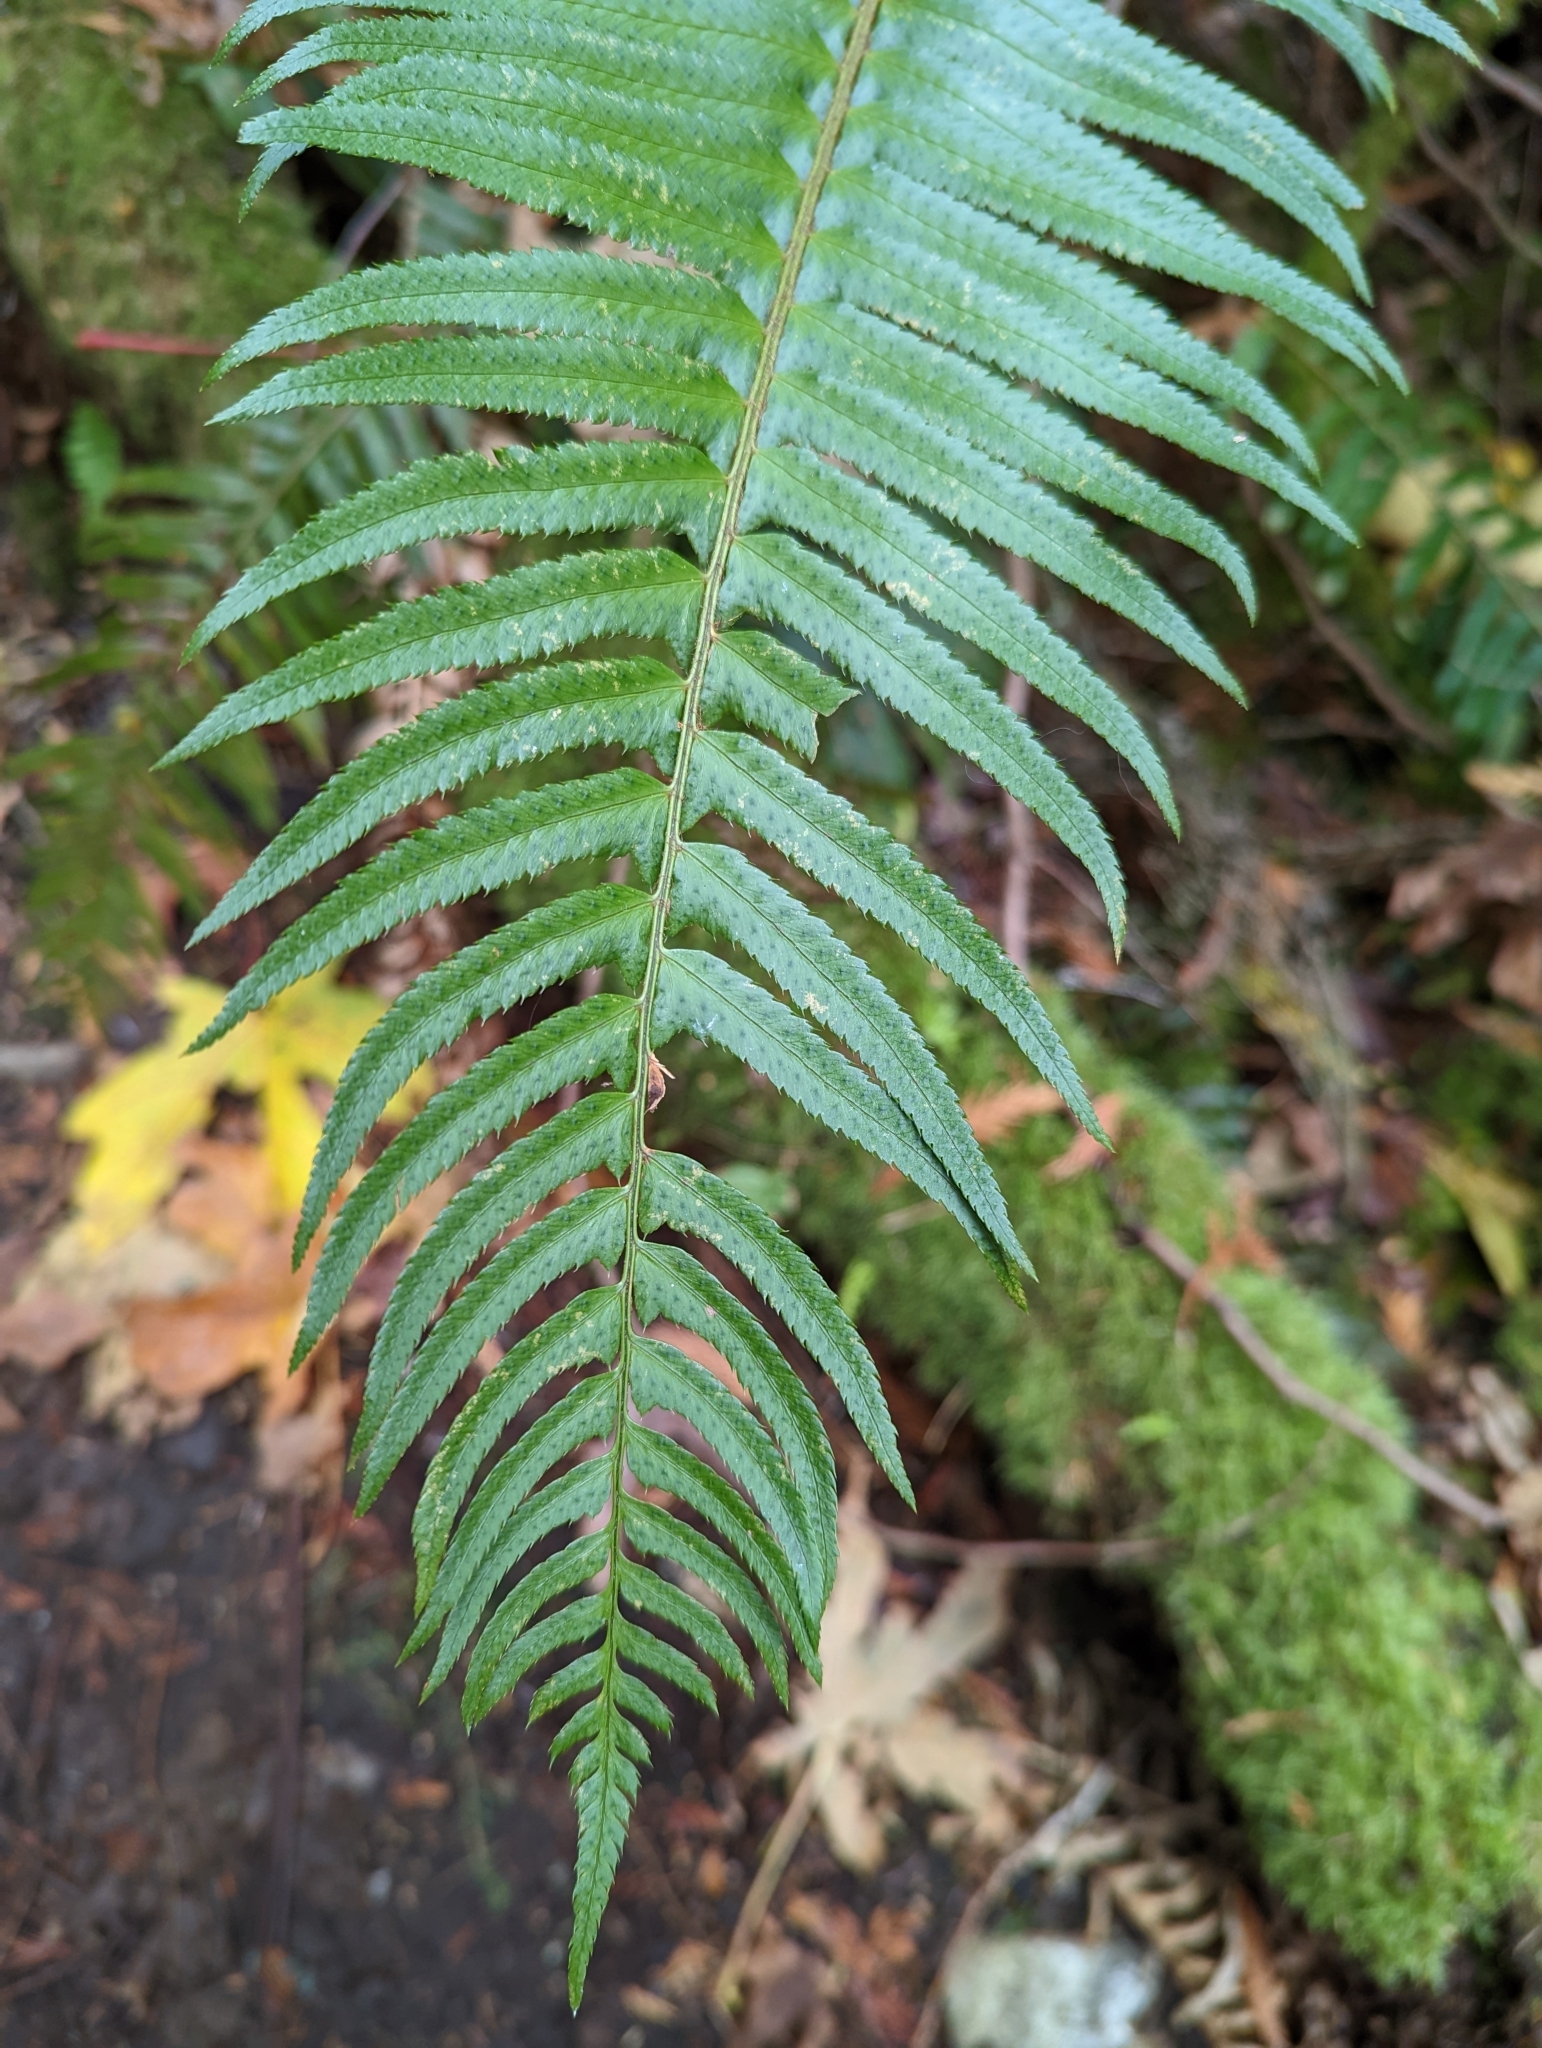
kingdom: Plantae
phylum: Tracheophyta
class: Polypodiopsida
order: Polypodiales
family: Dryopteridaceae
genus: Polystichum
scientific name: Polystichum munitum
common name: Western sword-fern
